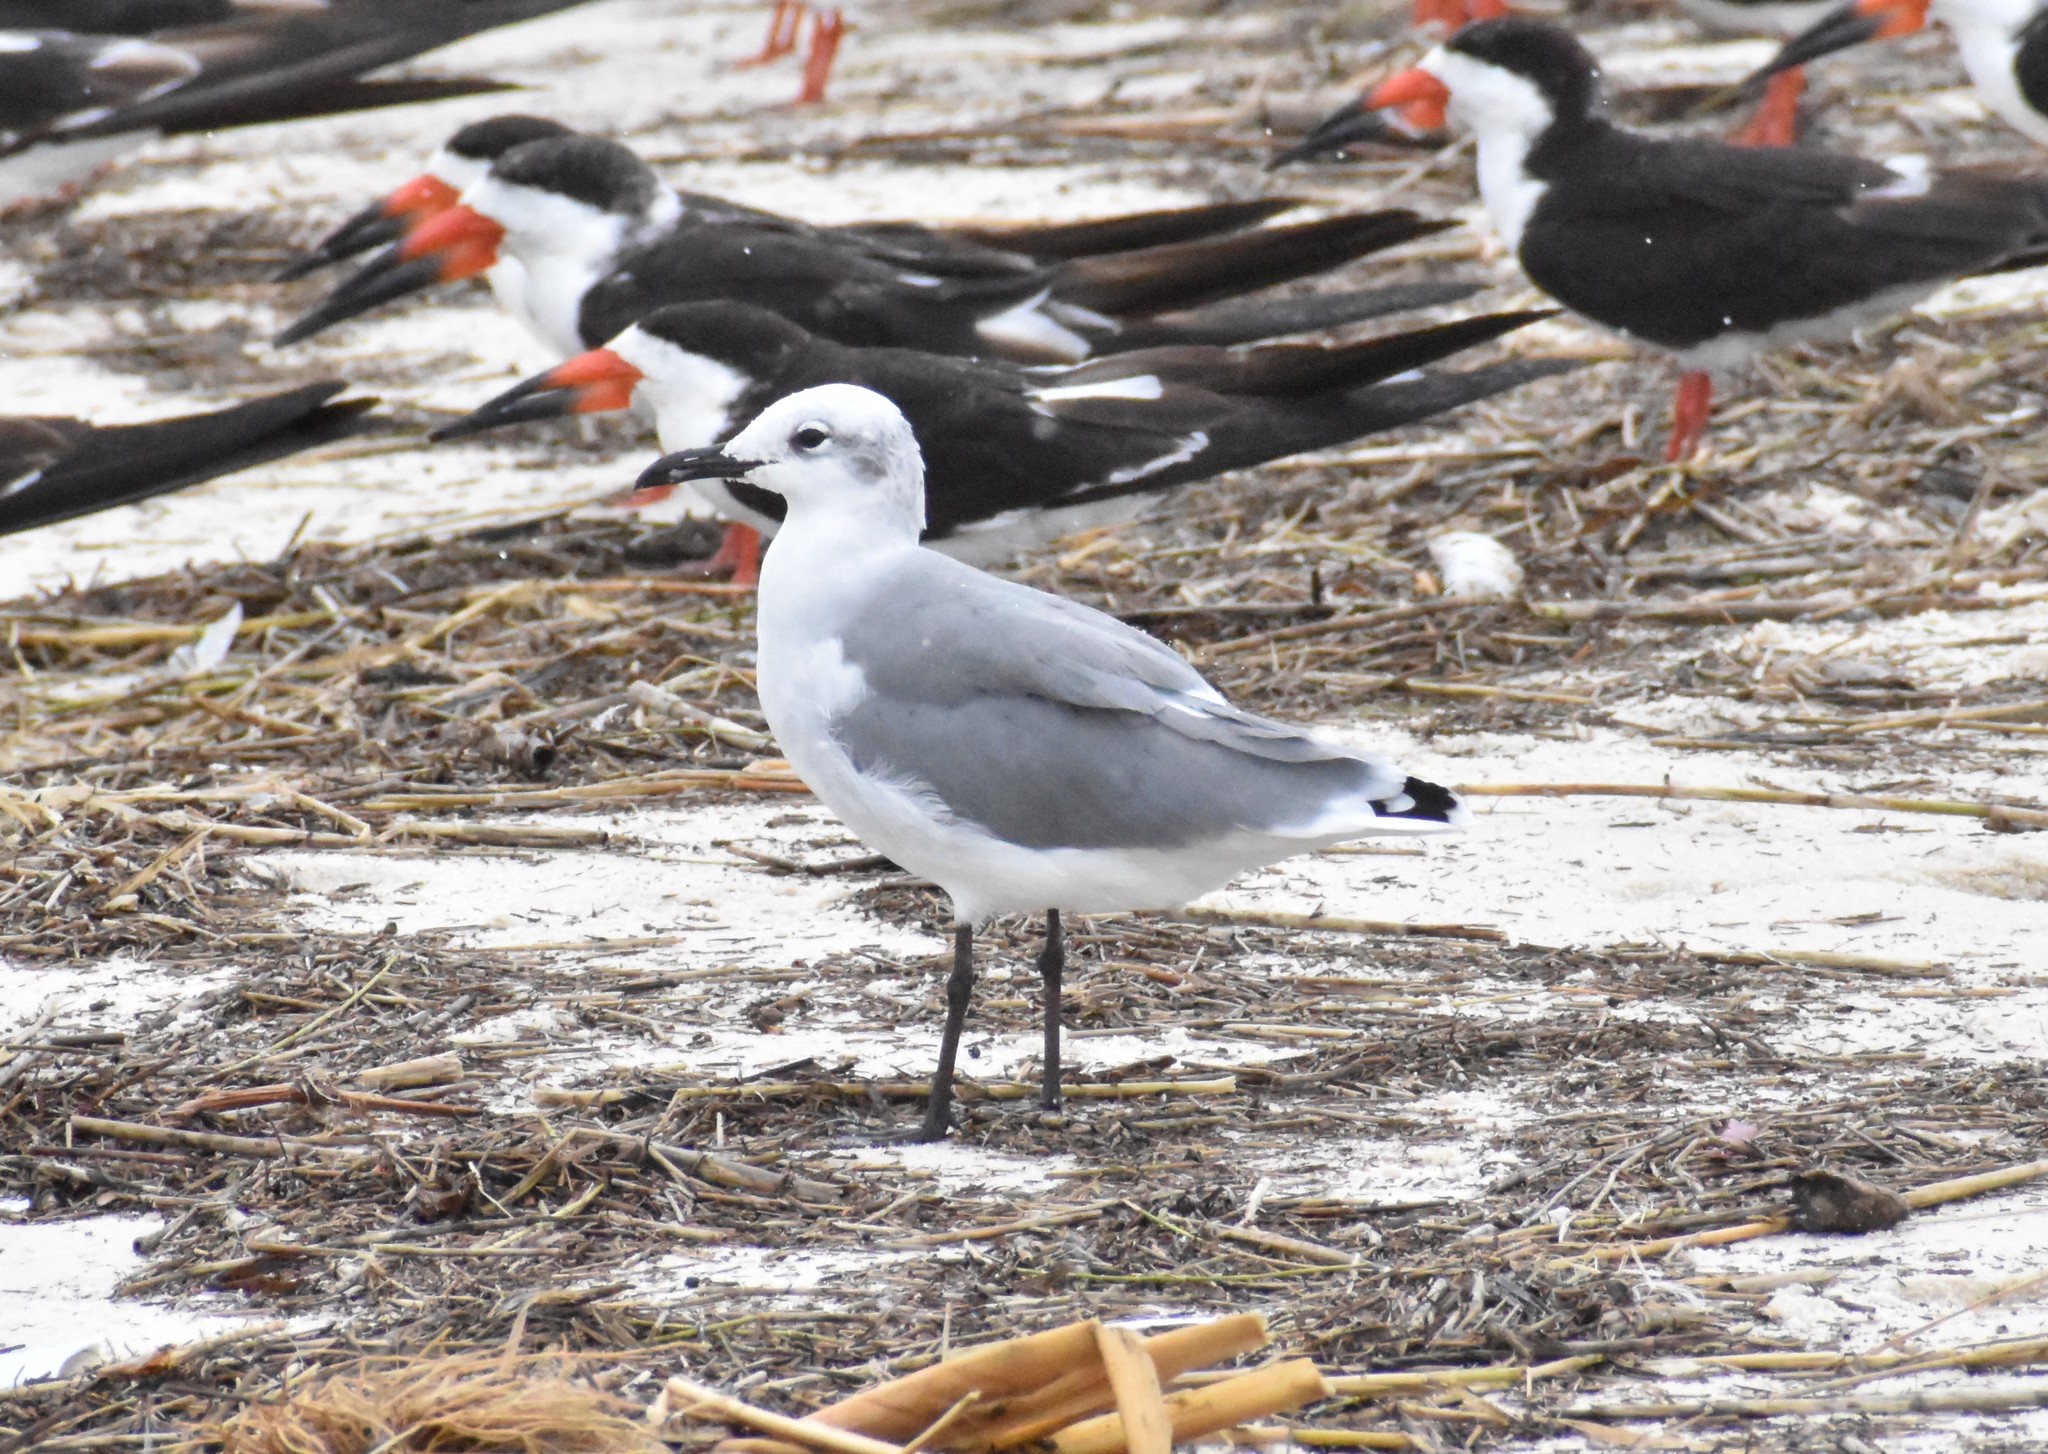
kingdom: Animalia
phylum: Chordata
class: Aves
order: Charadriiformes
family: Laridae
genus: Leucophaeus
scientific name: Leucophaeus atricilla
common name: Laughing gull
